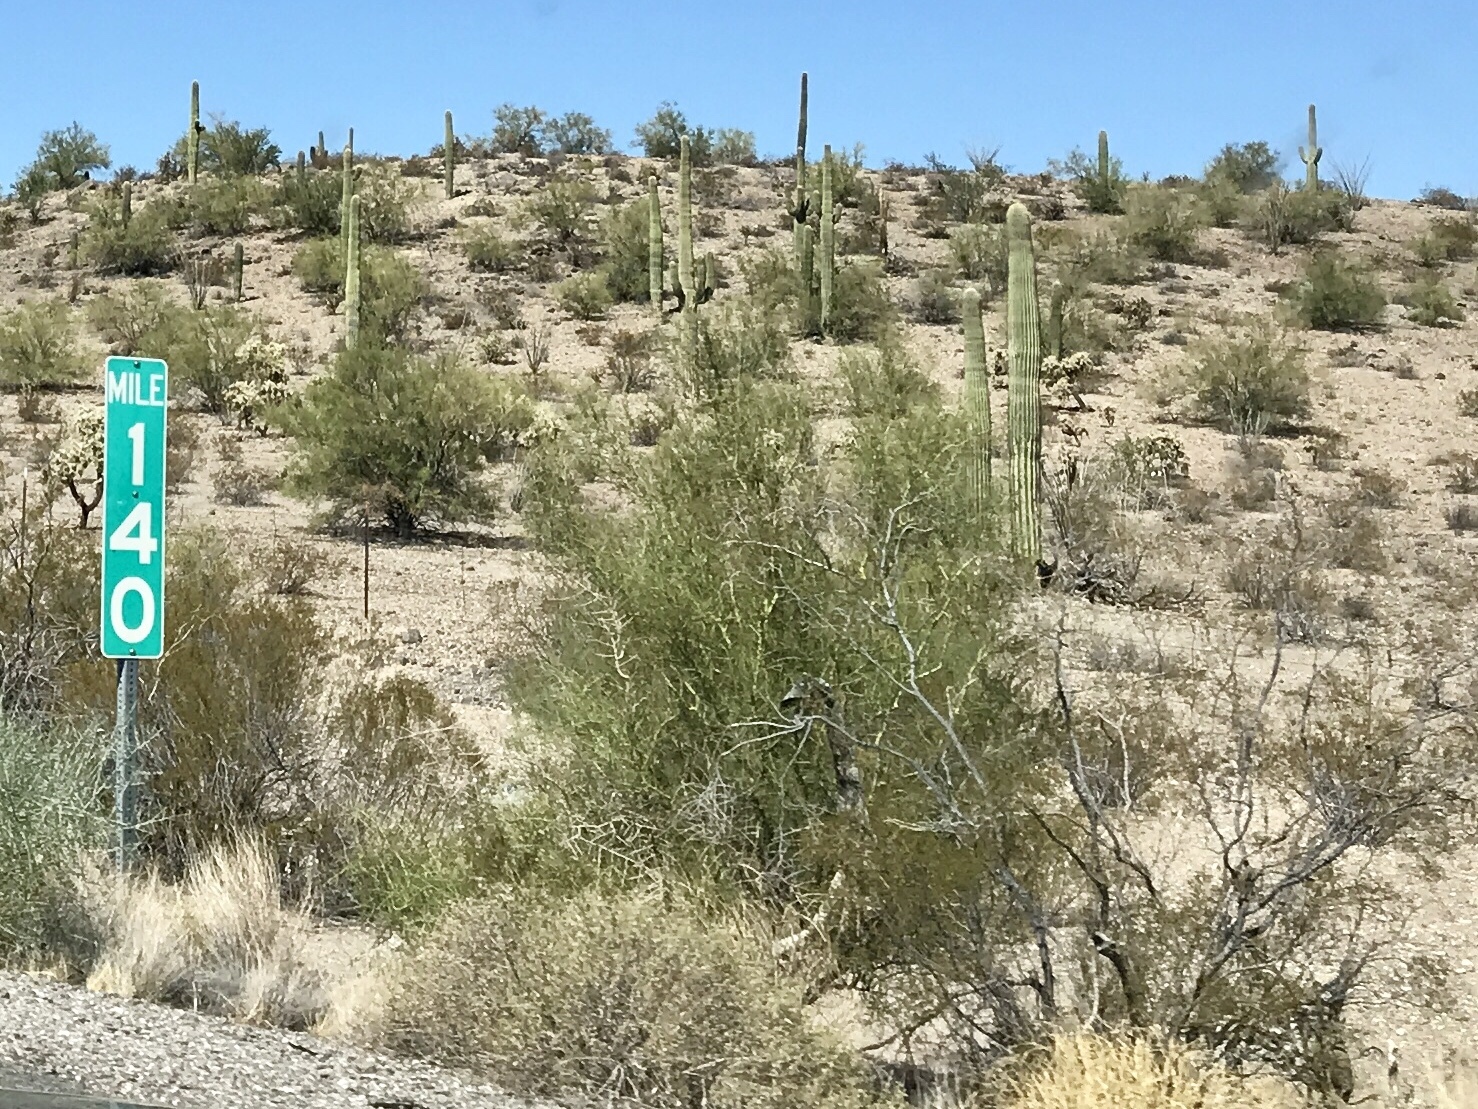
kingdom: Plantae
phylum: Tracheophyta
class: Magnoliopsida
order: Fabales
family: Fabaceae
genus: Parkinsonia
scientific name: Parkinsonia florida
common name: Blue paloverde
